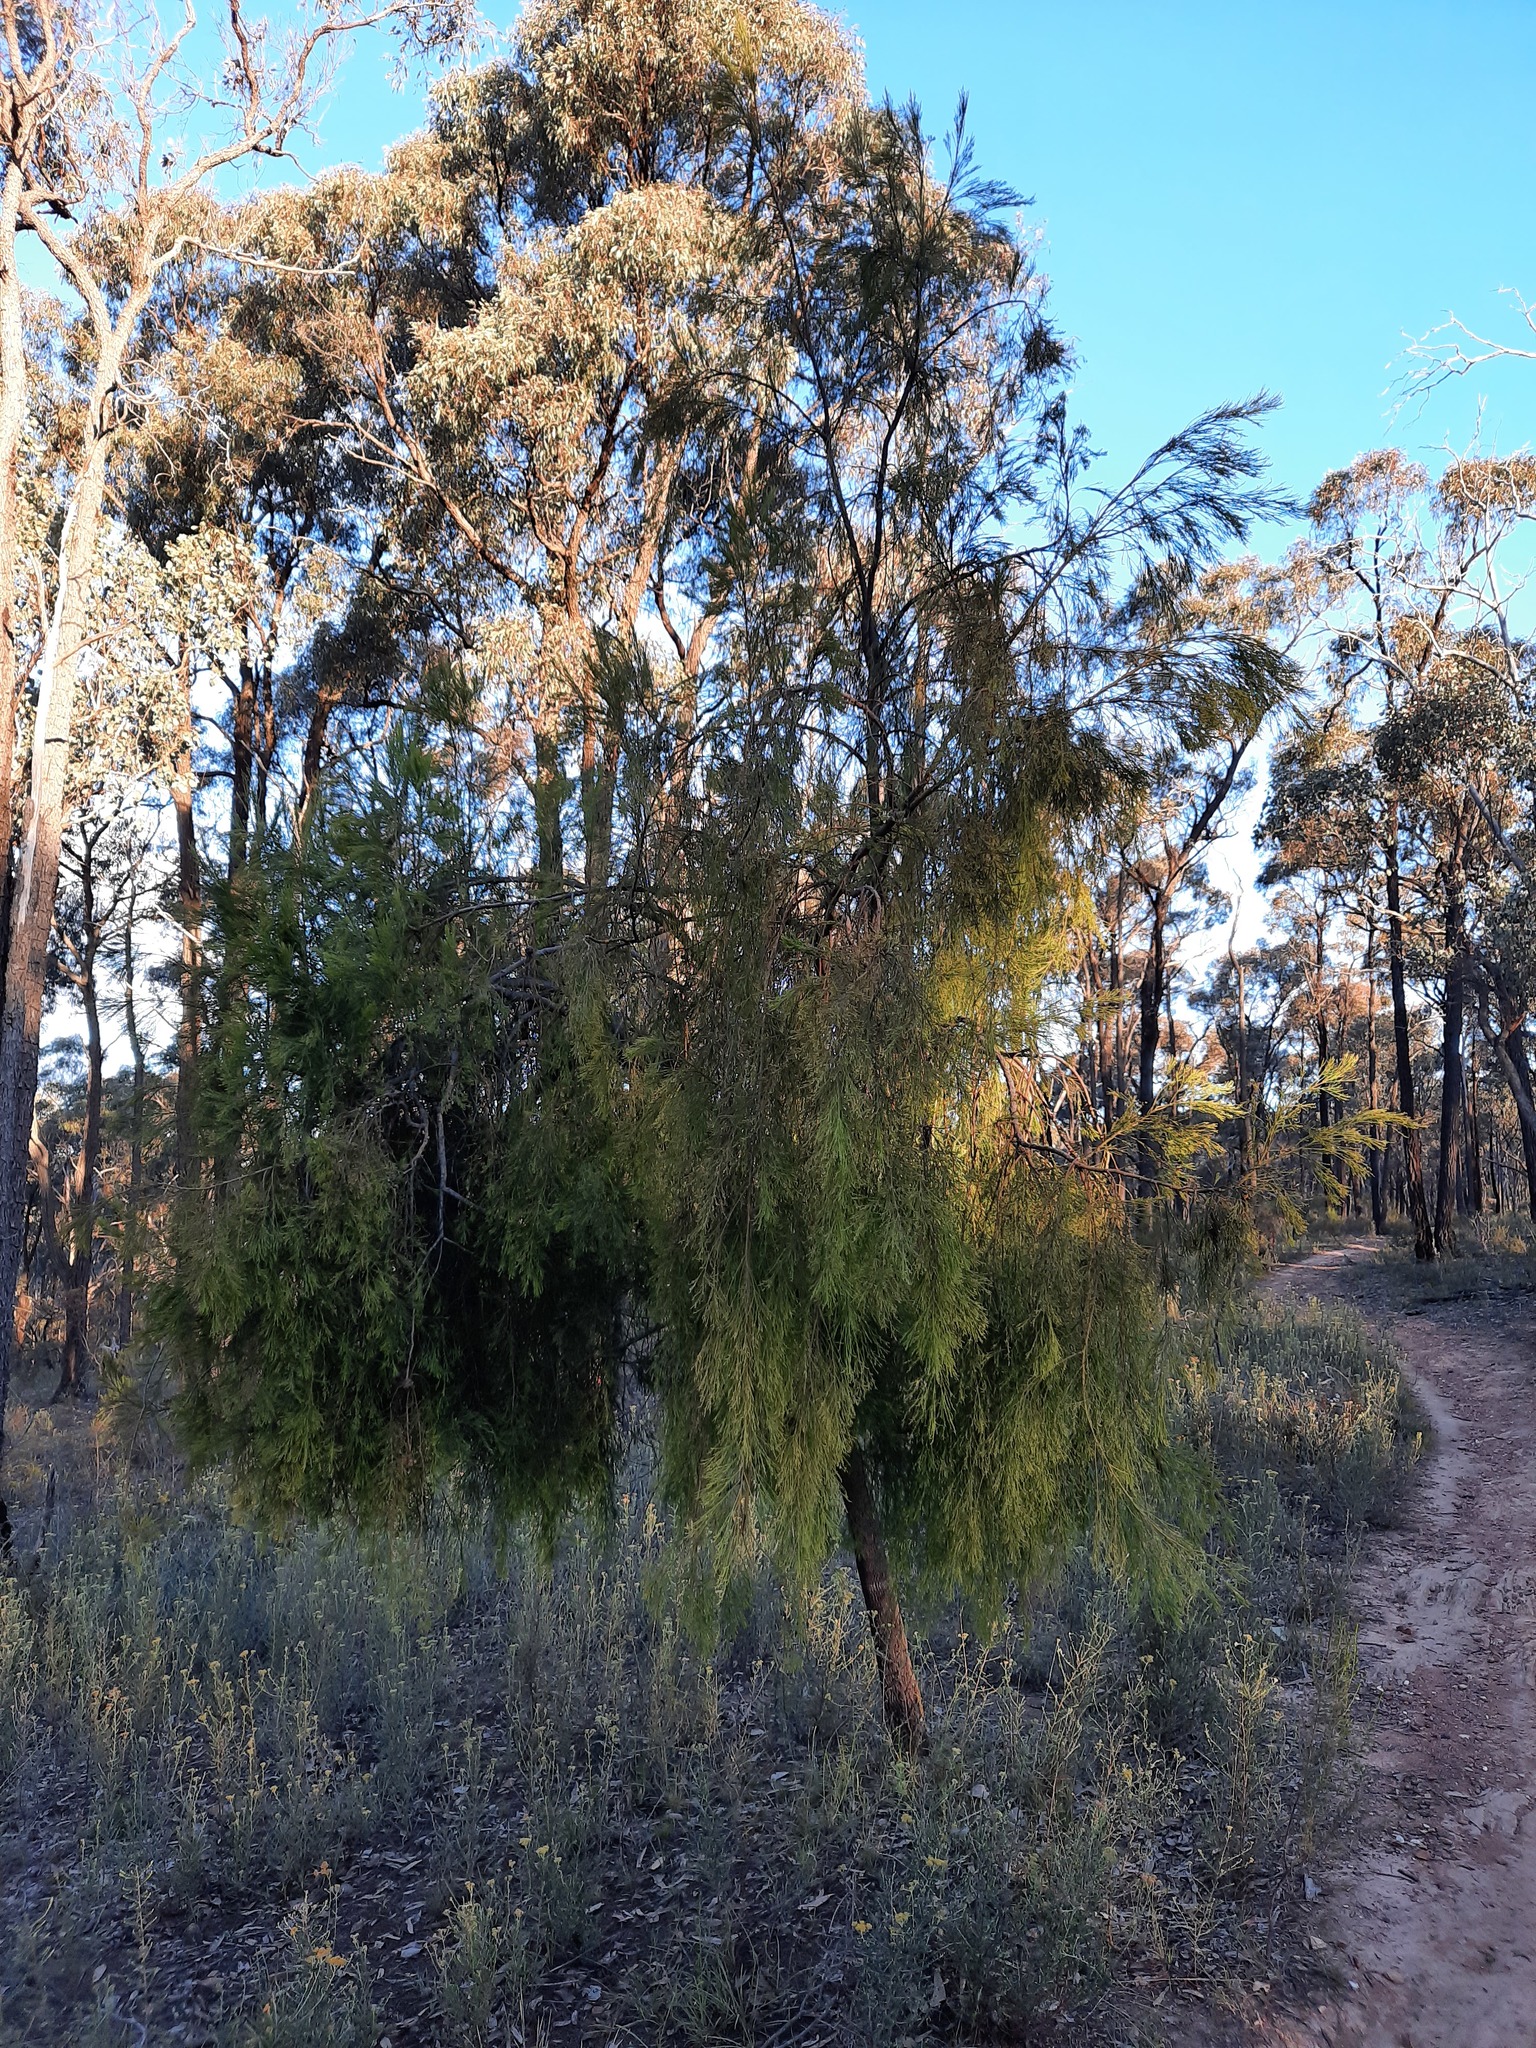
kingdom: Plantae
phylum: Tracheophyta
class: Magnoliopsida
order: Santalales
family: Santalaceae
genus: Exocarpos
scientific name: Exocarpos cupressiformis
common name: Cherry ballart
